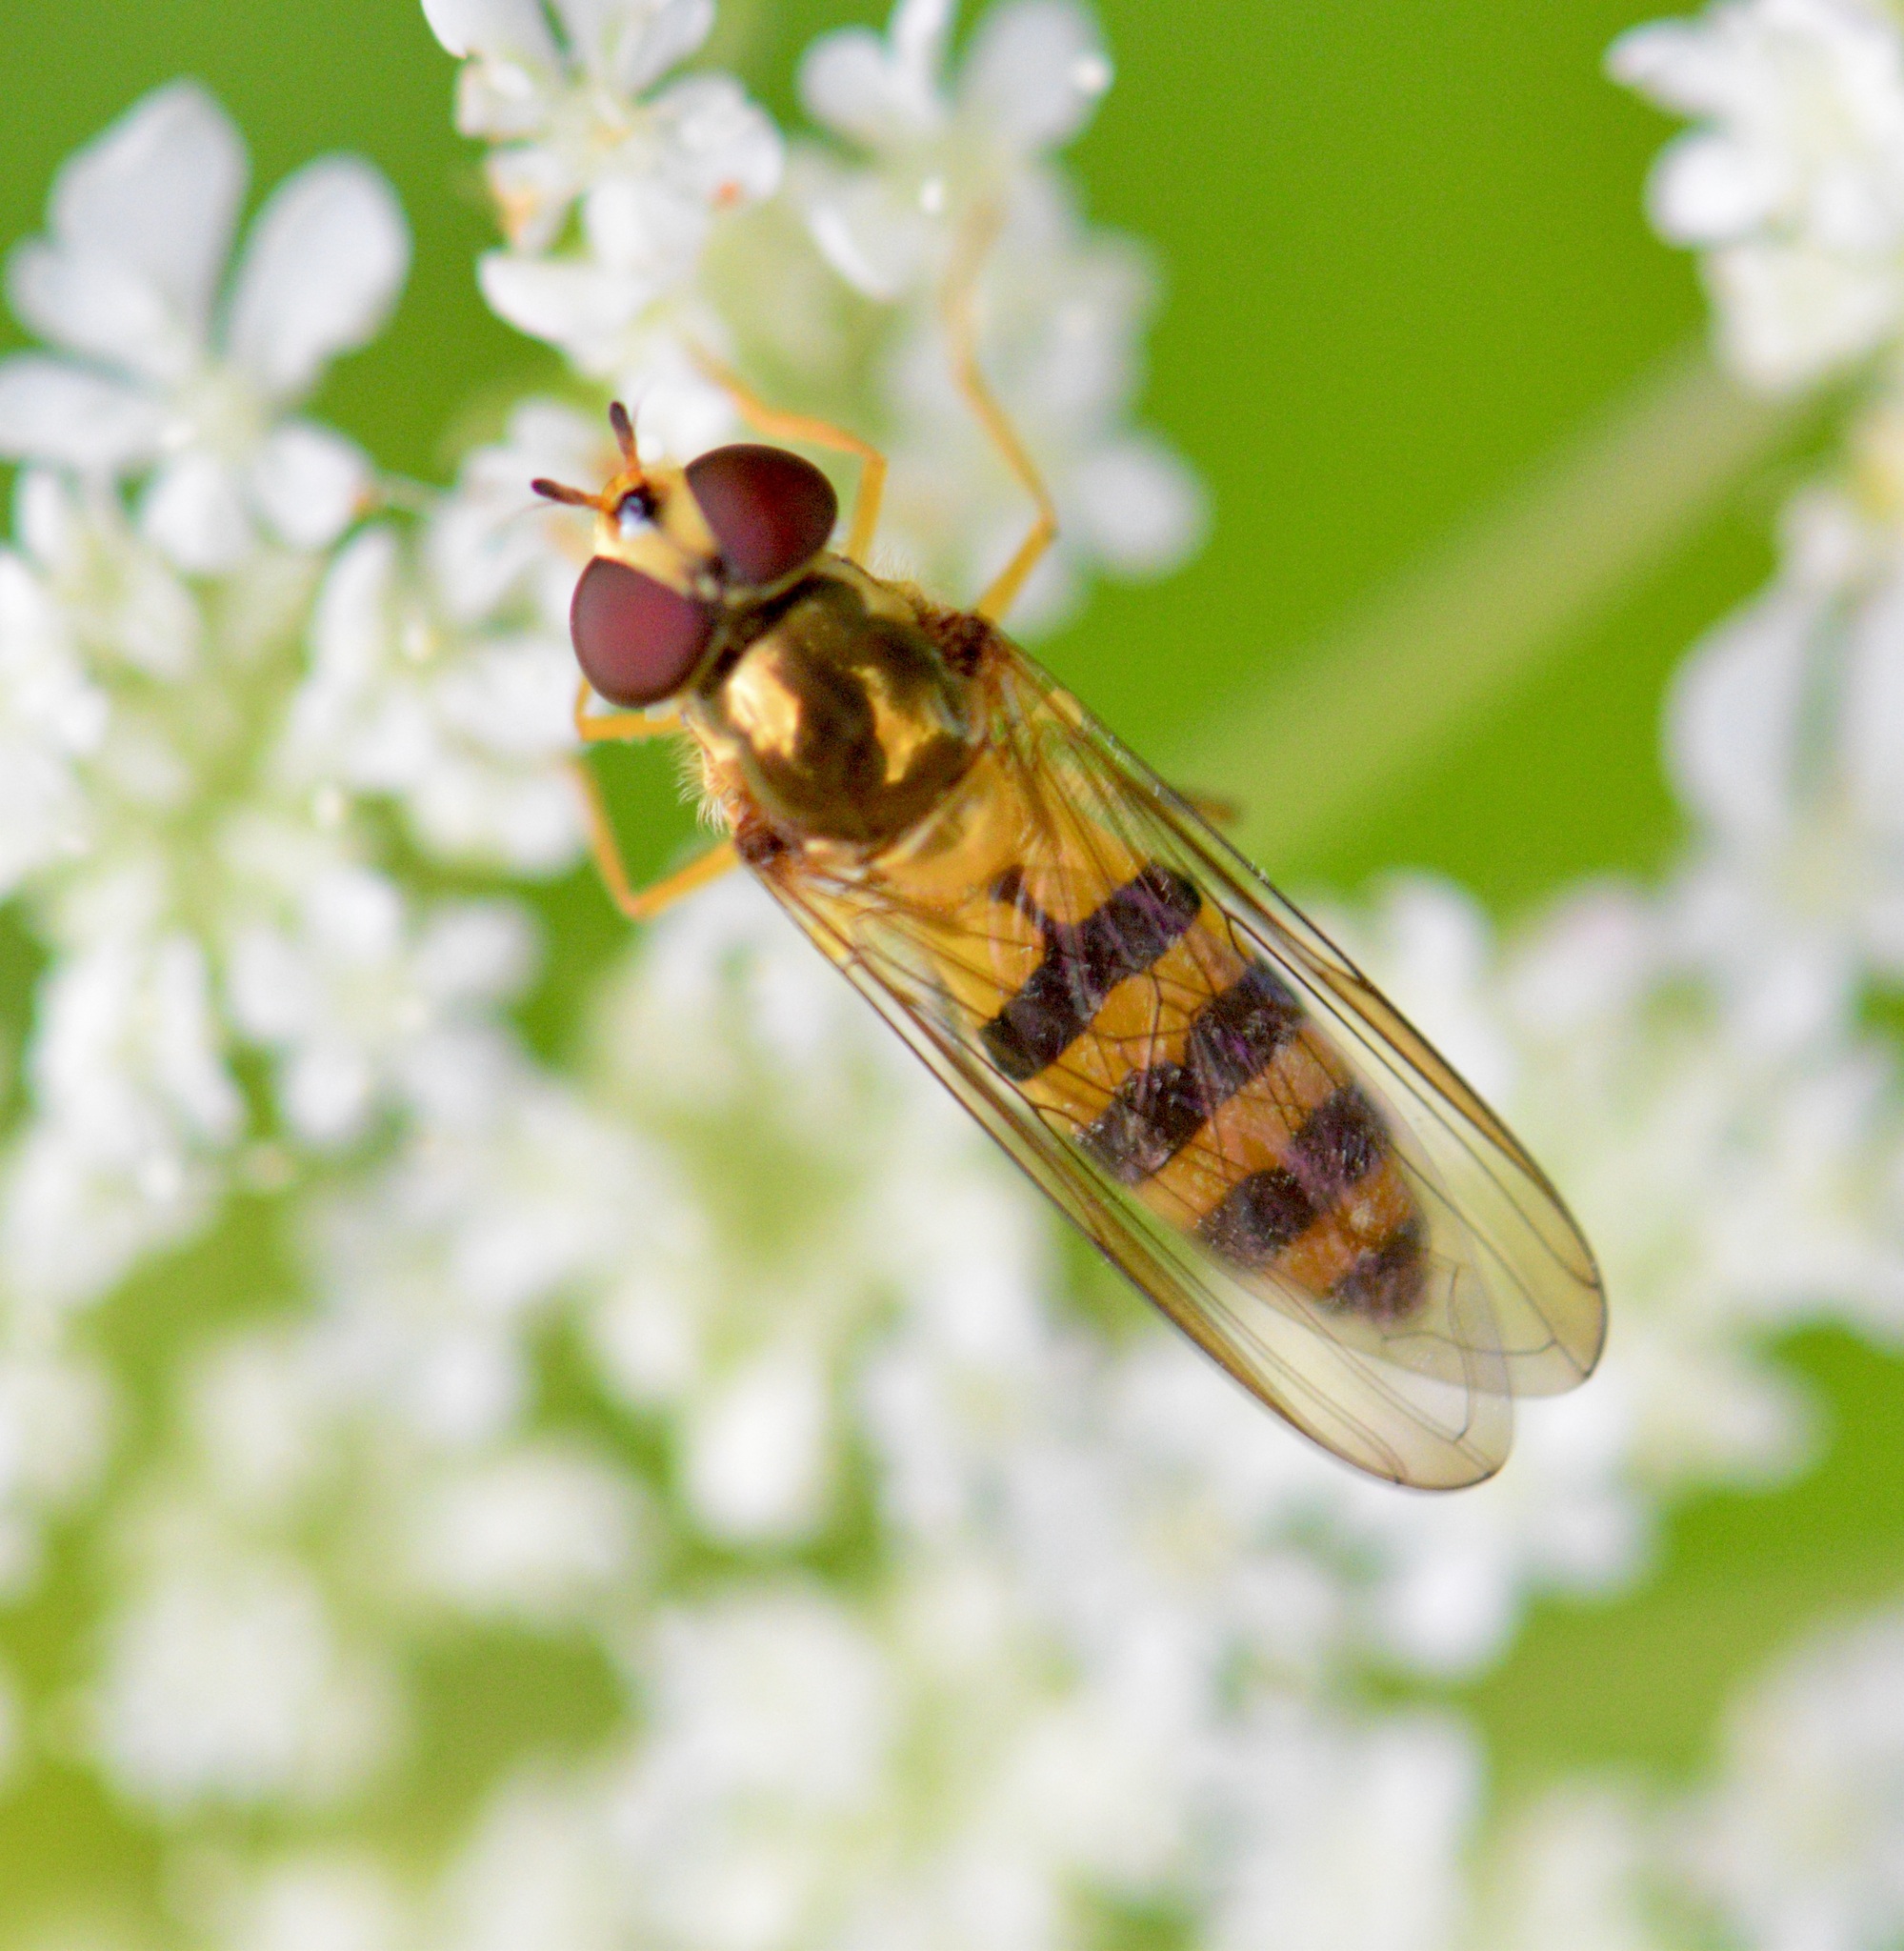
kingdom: Animalia
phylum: Arthropoda
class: Insecta
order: Diptera
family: Syrphidae
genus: Meliscaeva
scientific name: Meliscaeva cinctella
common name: American thintail fly
